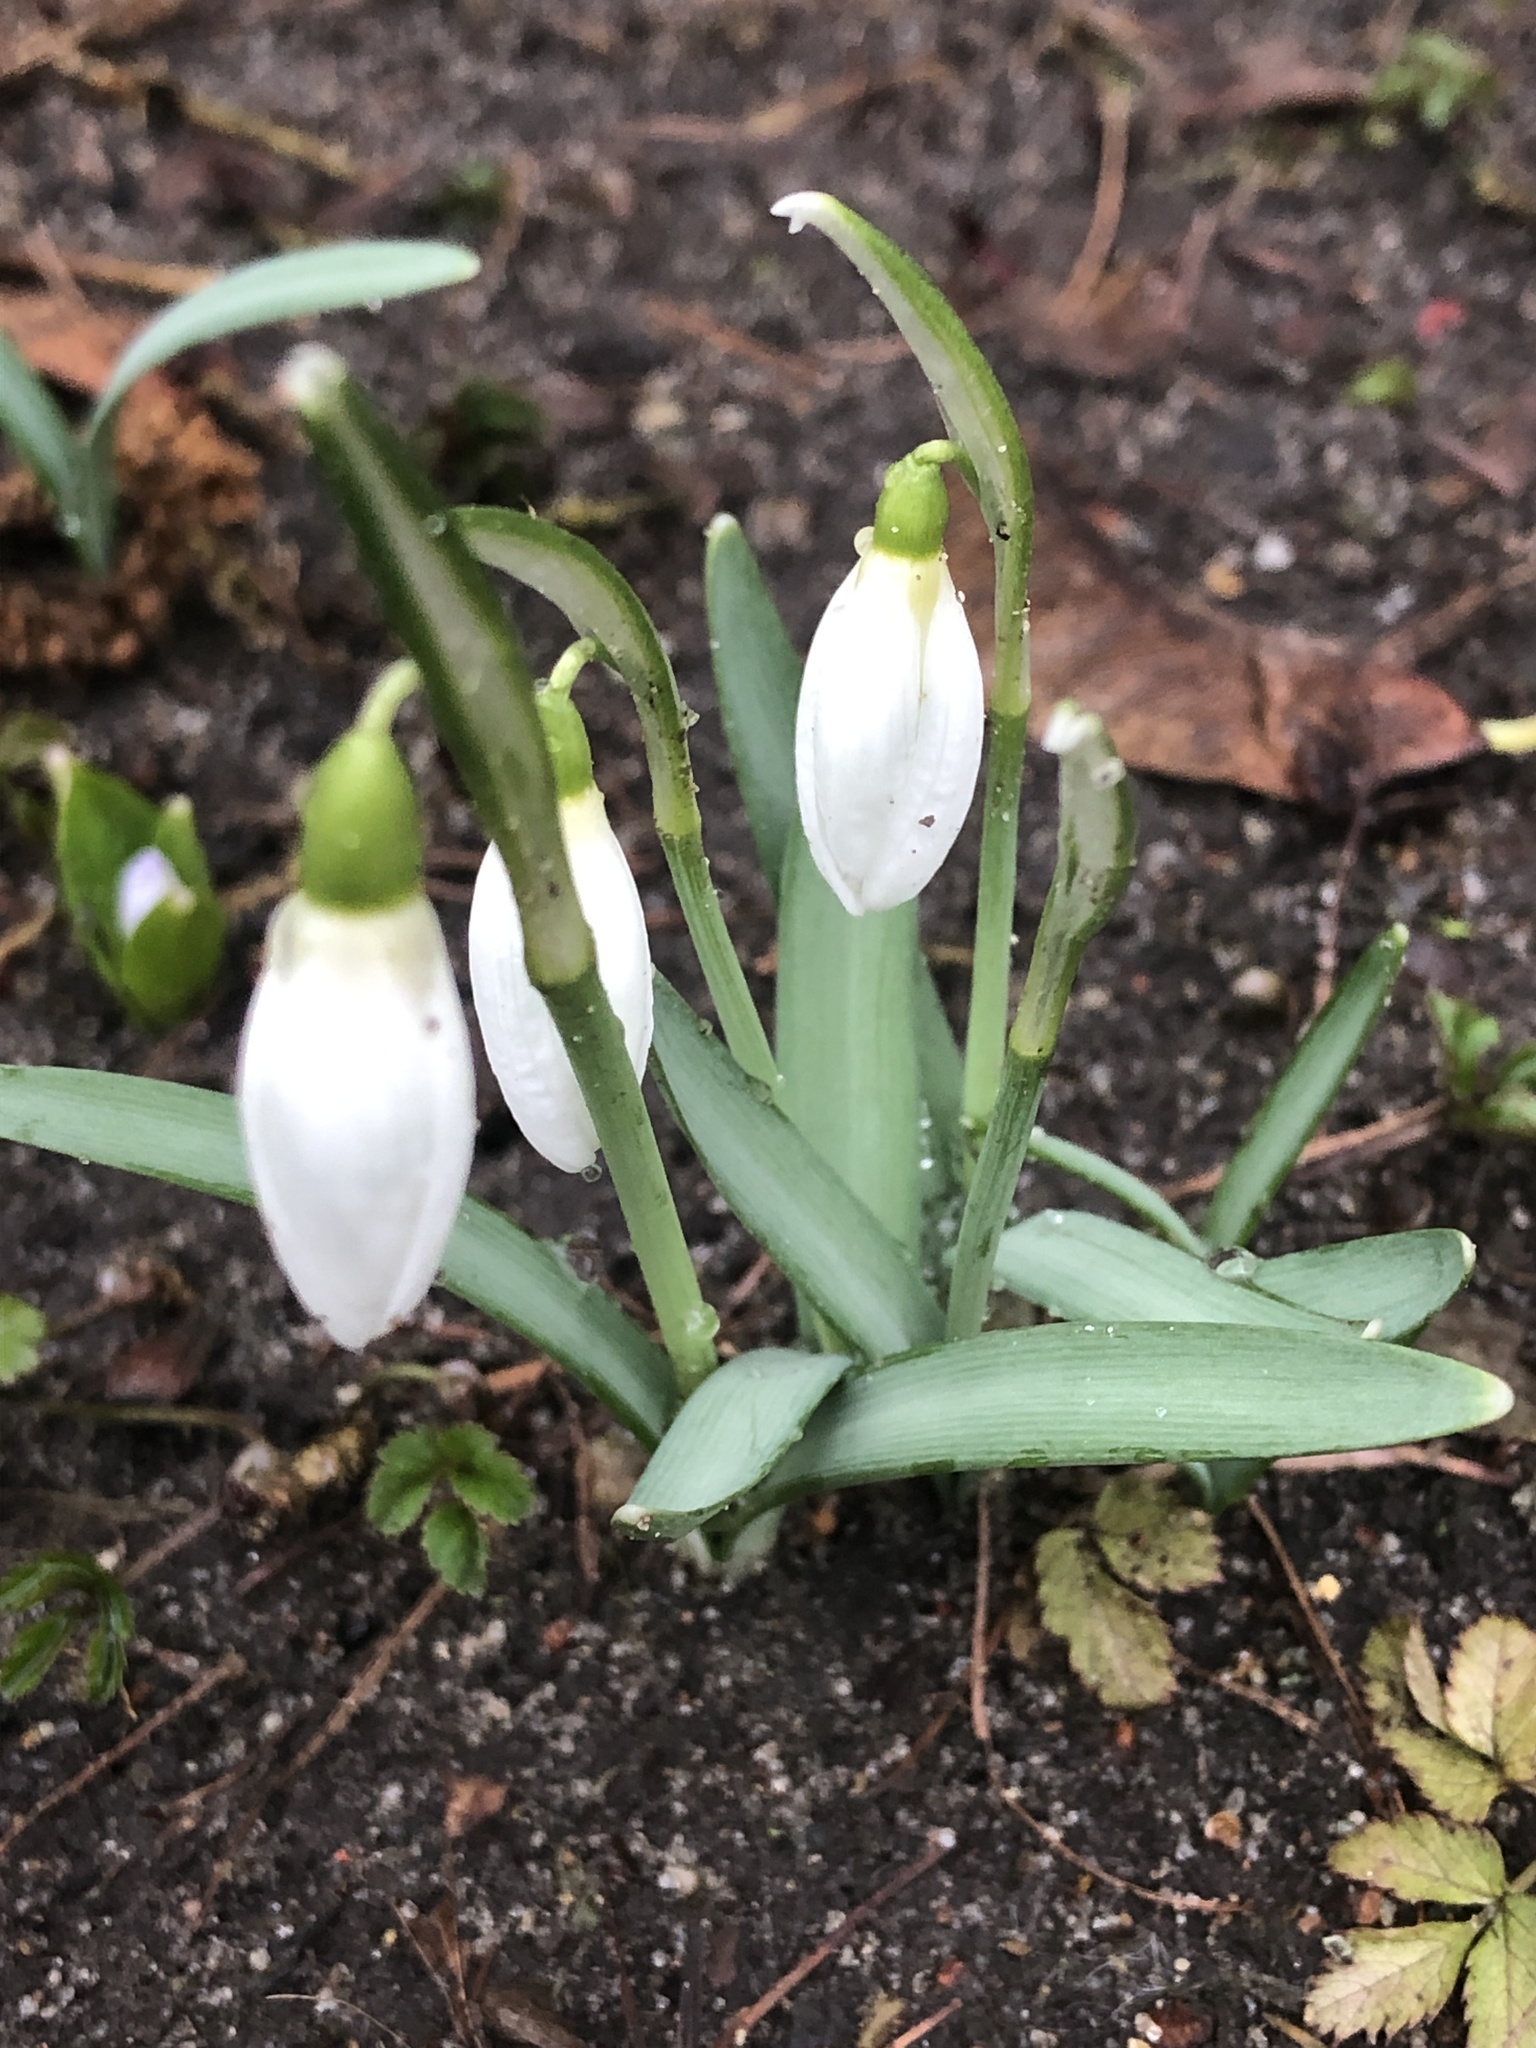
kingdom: Plantae
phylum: Tracheophyta
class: Liliopsida
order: Asparagales
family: Amaryllidaceae
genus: Galanthus
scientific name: Galanthus nivalis
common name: Snowdrop
